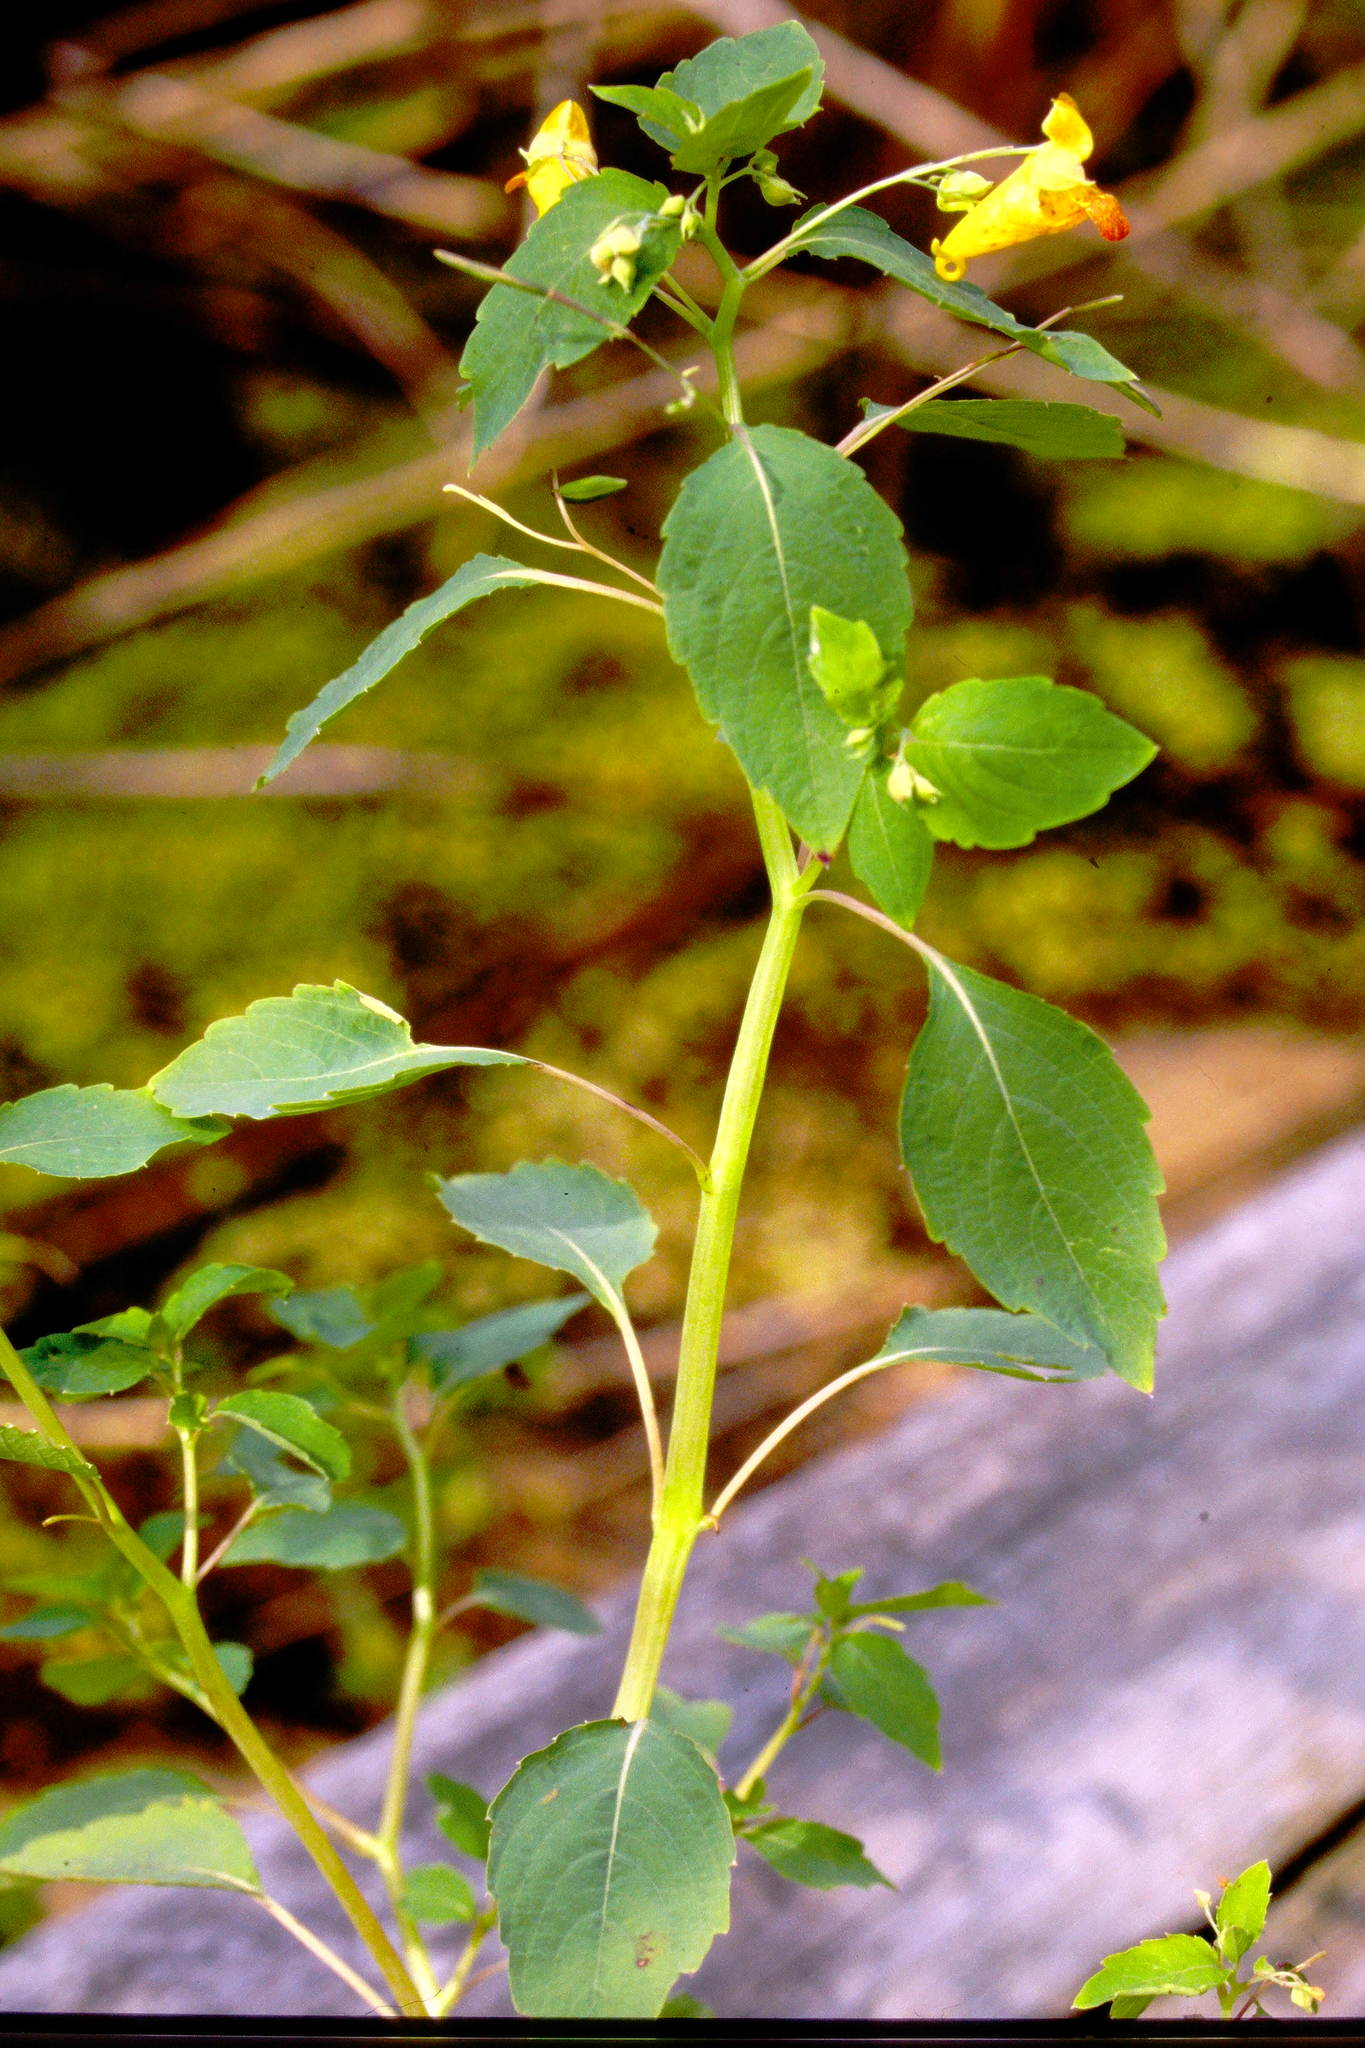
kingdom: Plantae
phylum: Tracheophyta
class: Magnoliopsida
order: Ericales
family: Balsaminaceae
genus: Impatiens
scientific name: Impatiens capensis
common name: Orange balsam
